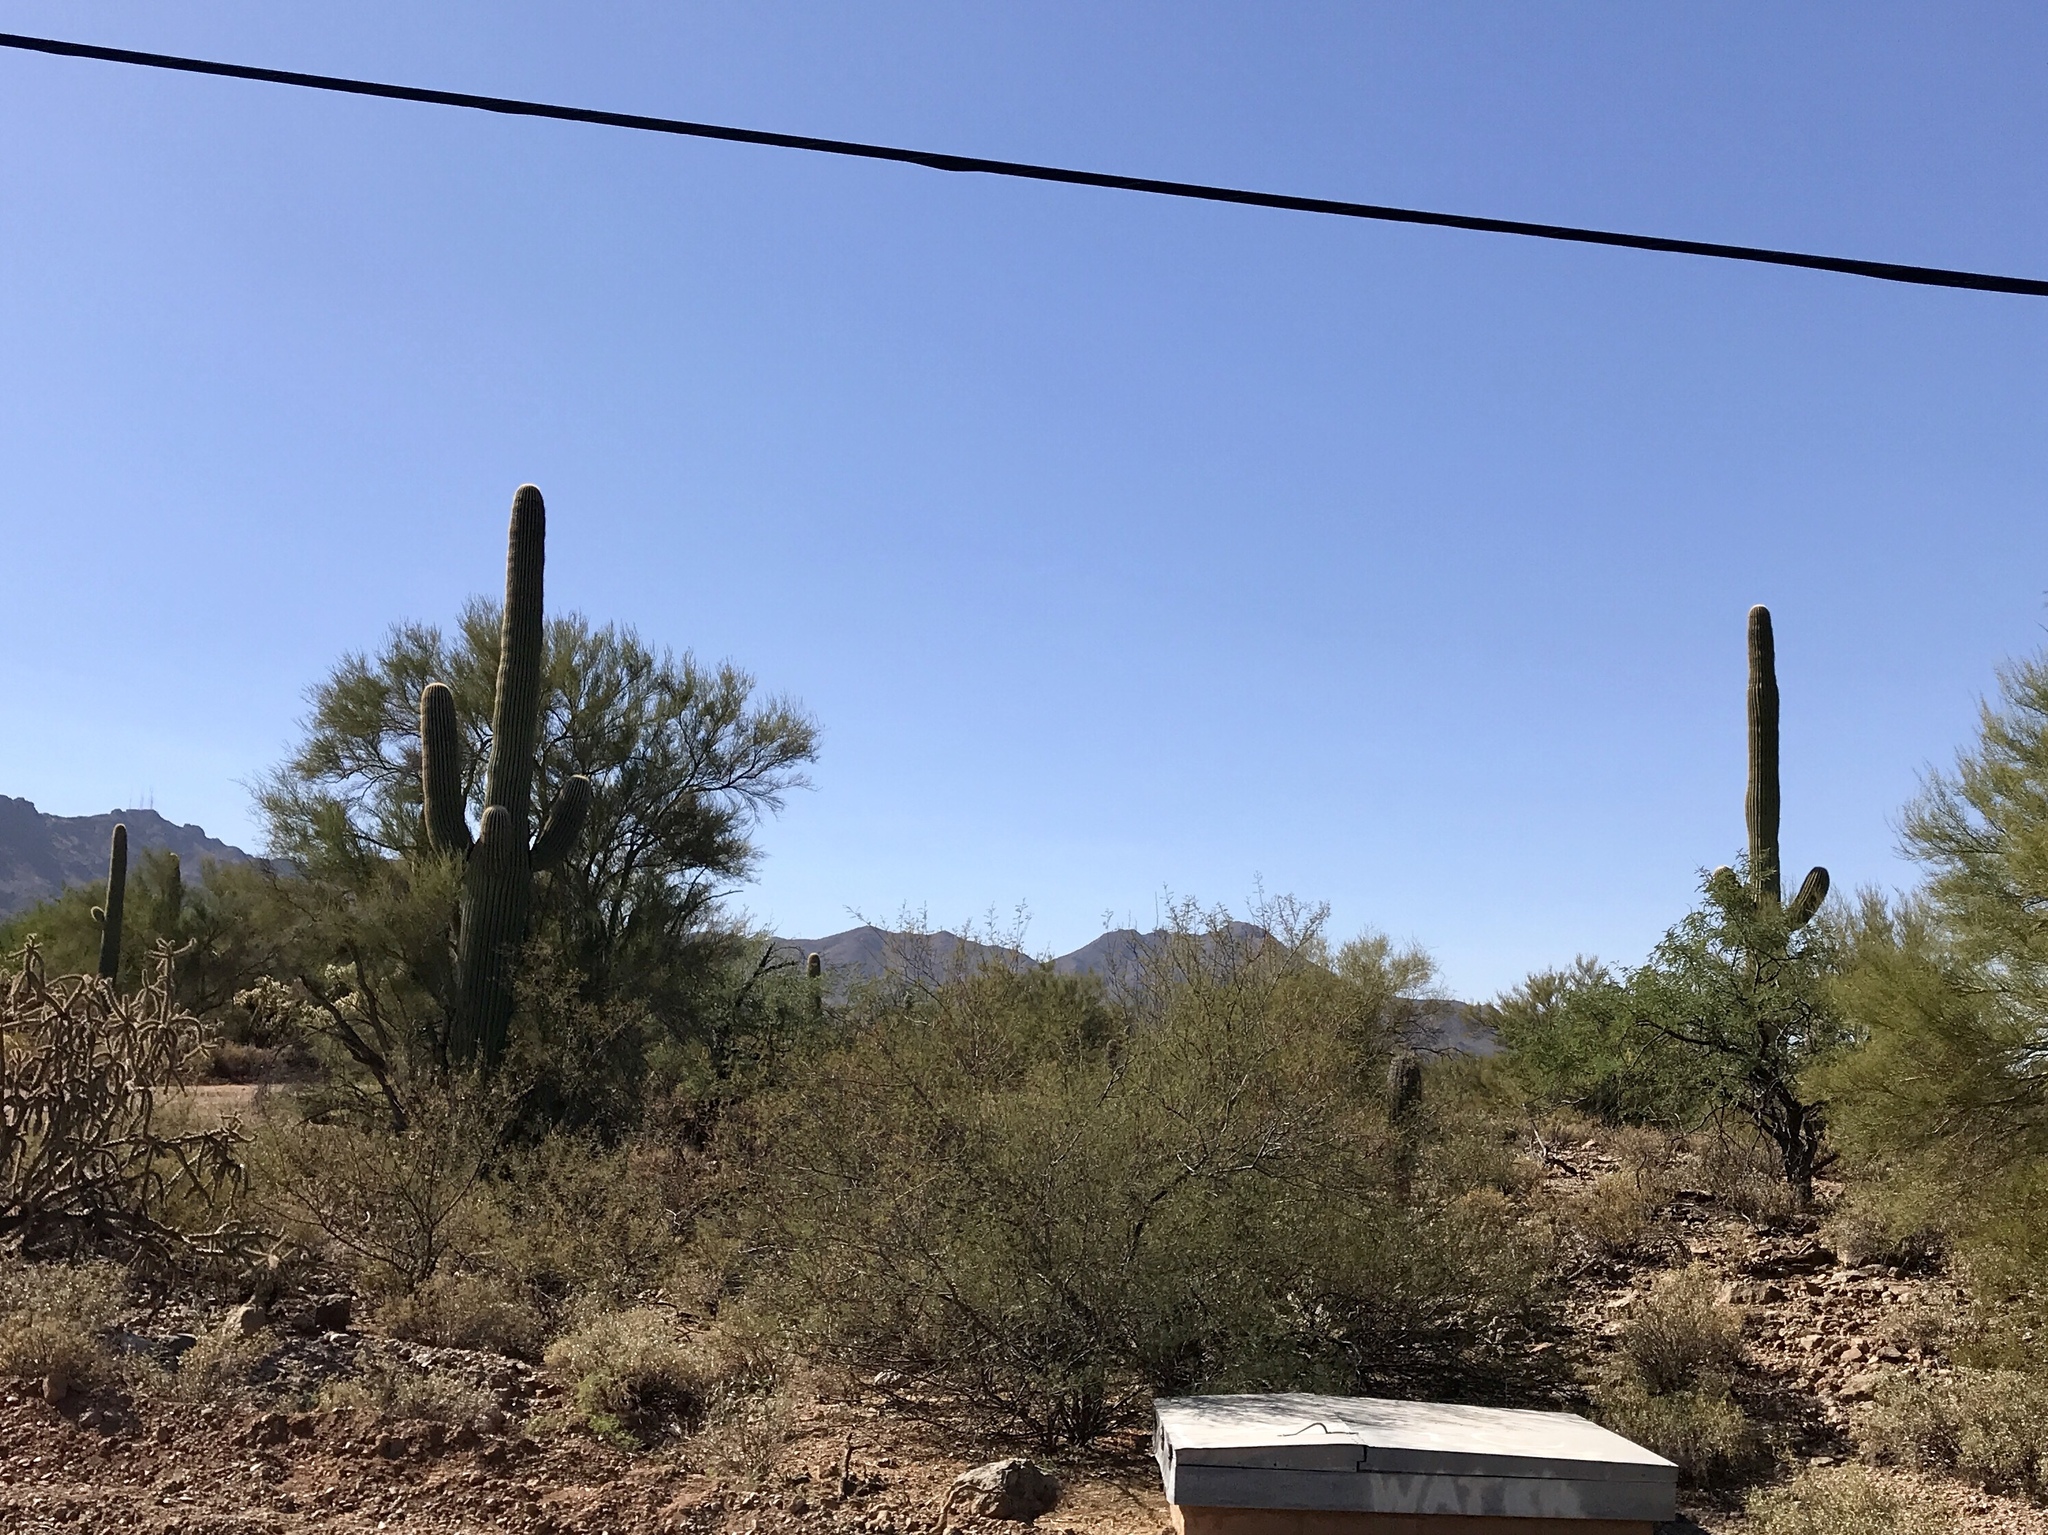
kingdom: Plantae
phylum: Tracheophyta
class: Magnoliopsida
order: Caryophyllales
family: Cactaceae
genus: Carnegiea
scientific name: Carnegiea gigantea
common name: Saguaro
